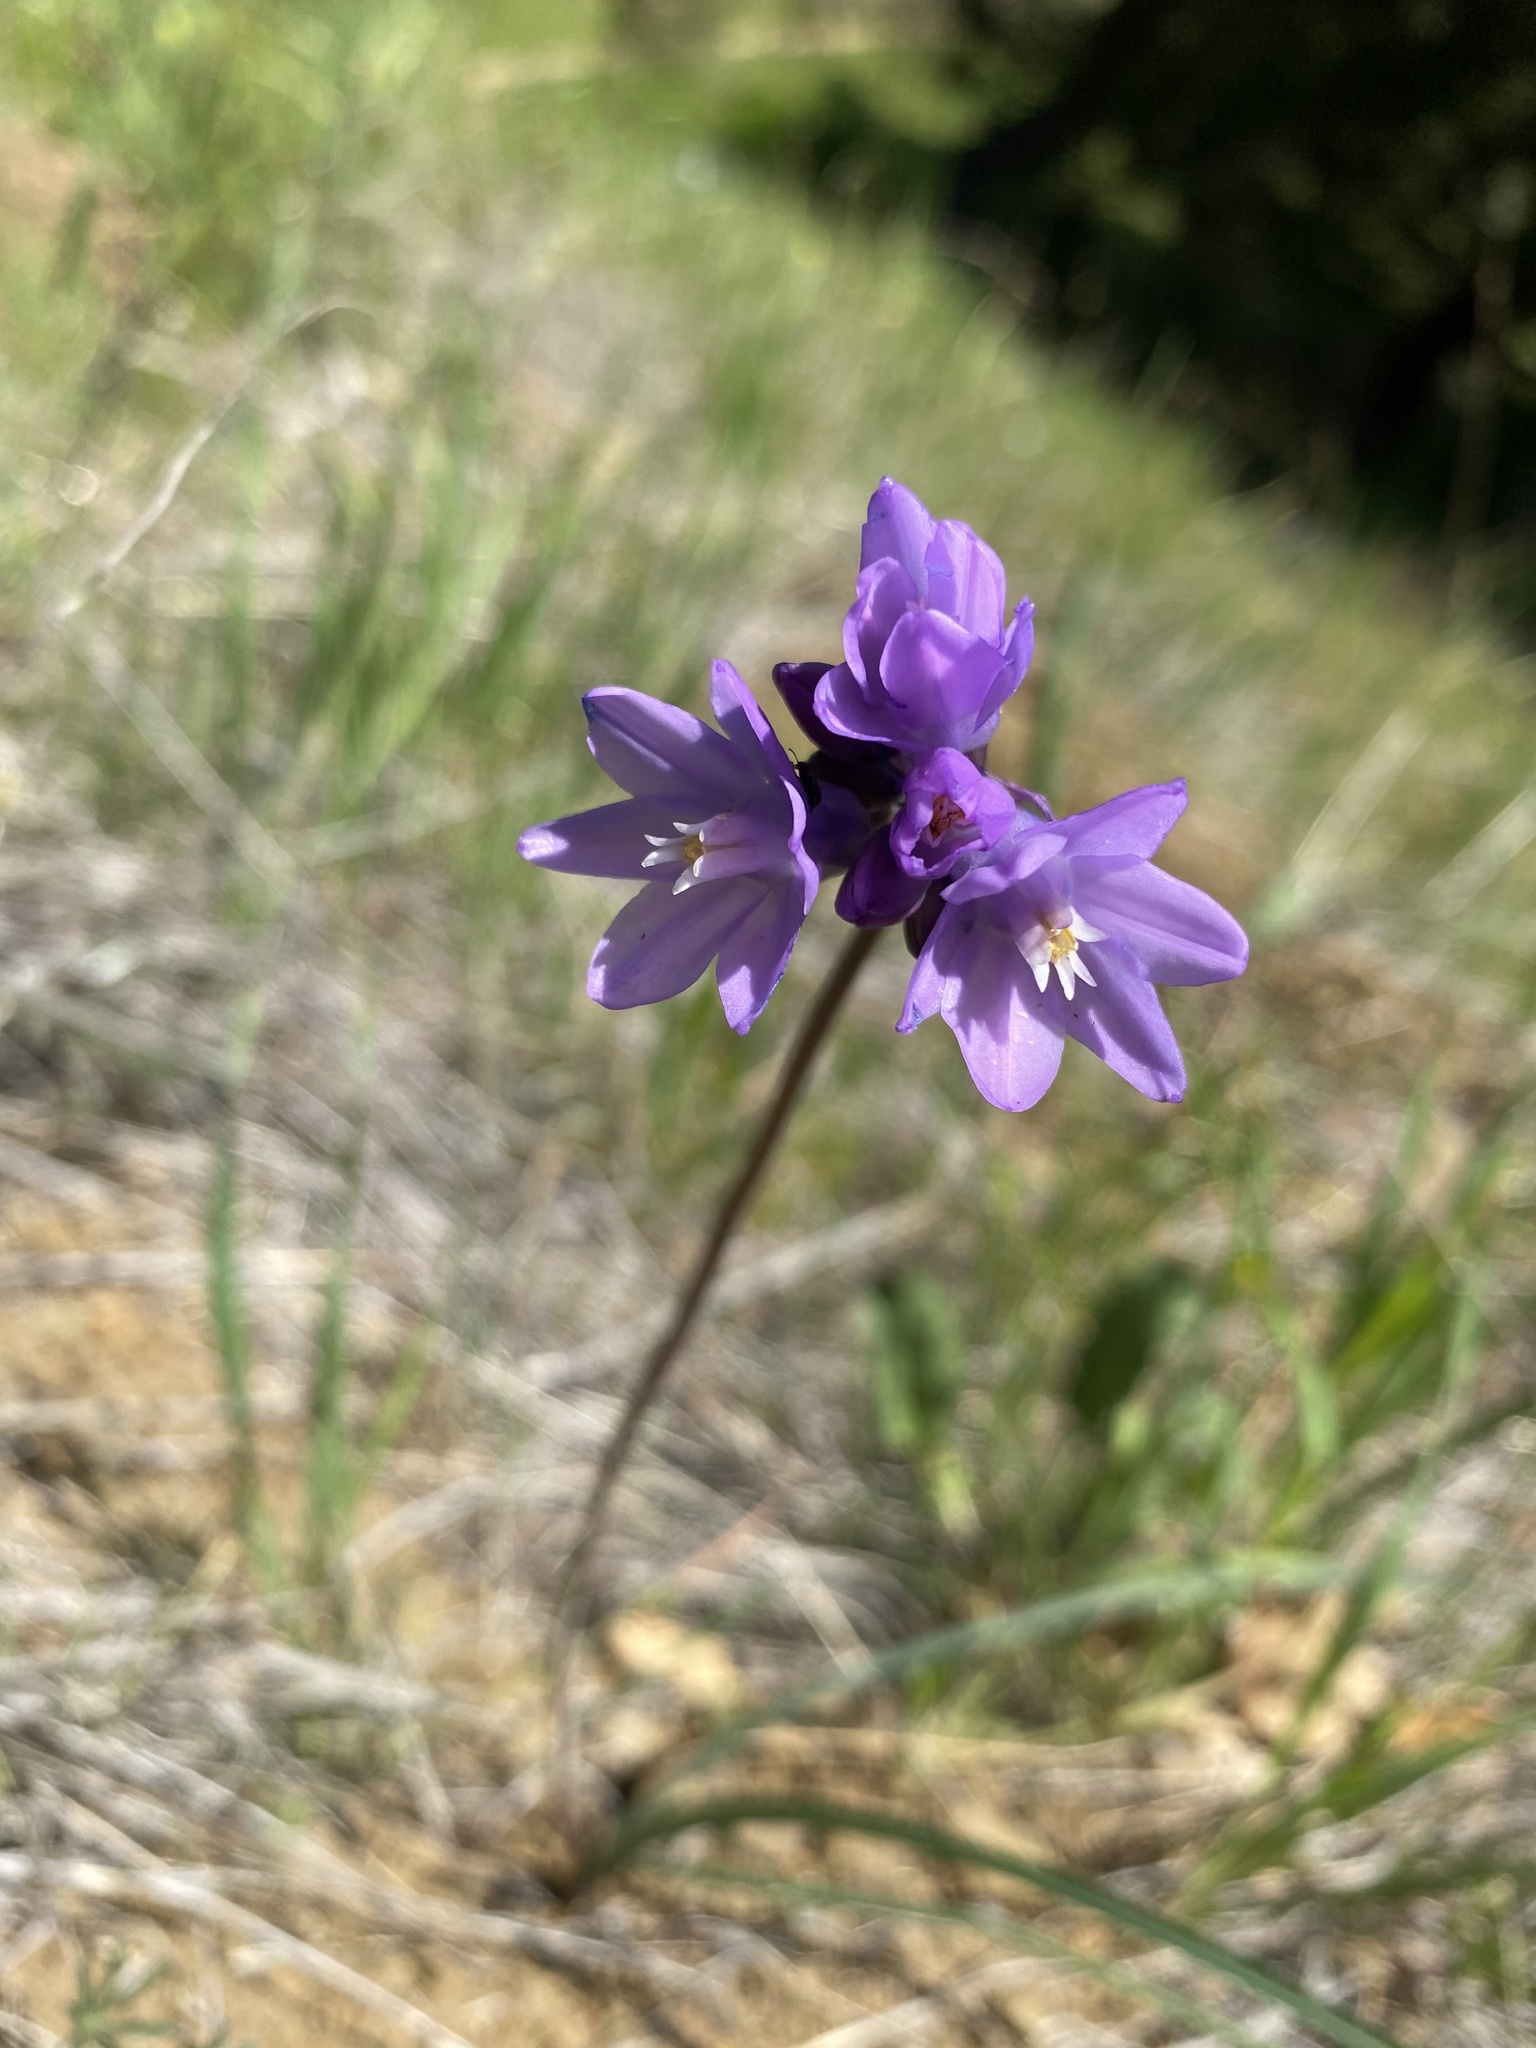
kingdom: Plantae
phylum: Tracheophyta
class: Liliopsida
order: Asparagales
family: Asparagaceae
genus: Dipterostemon
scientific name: Dipterostemon capitatus
